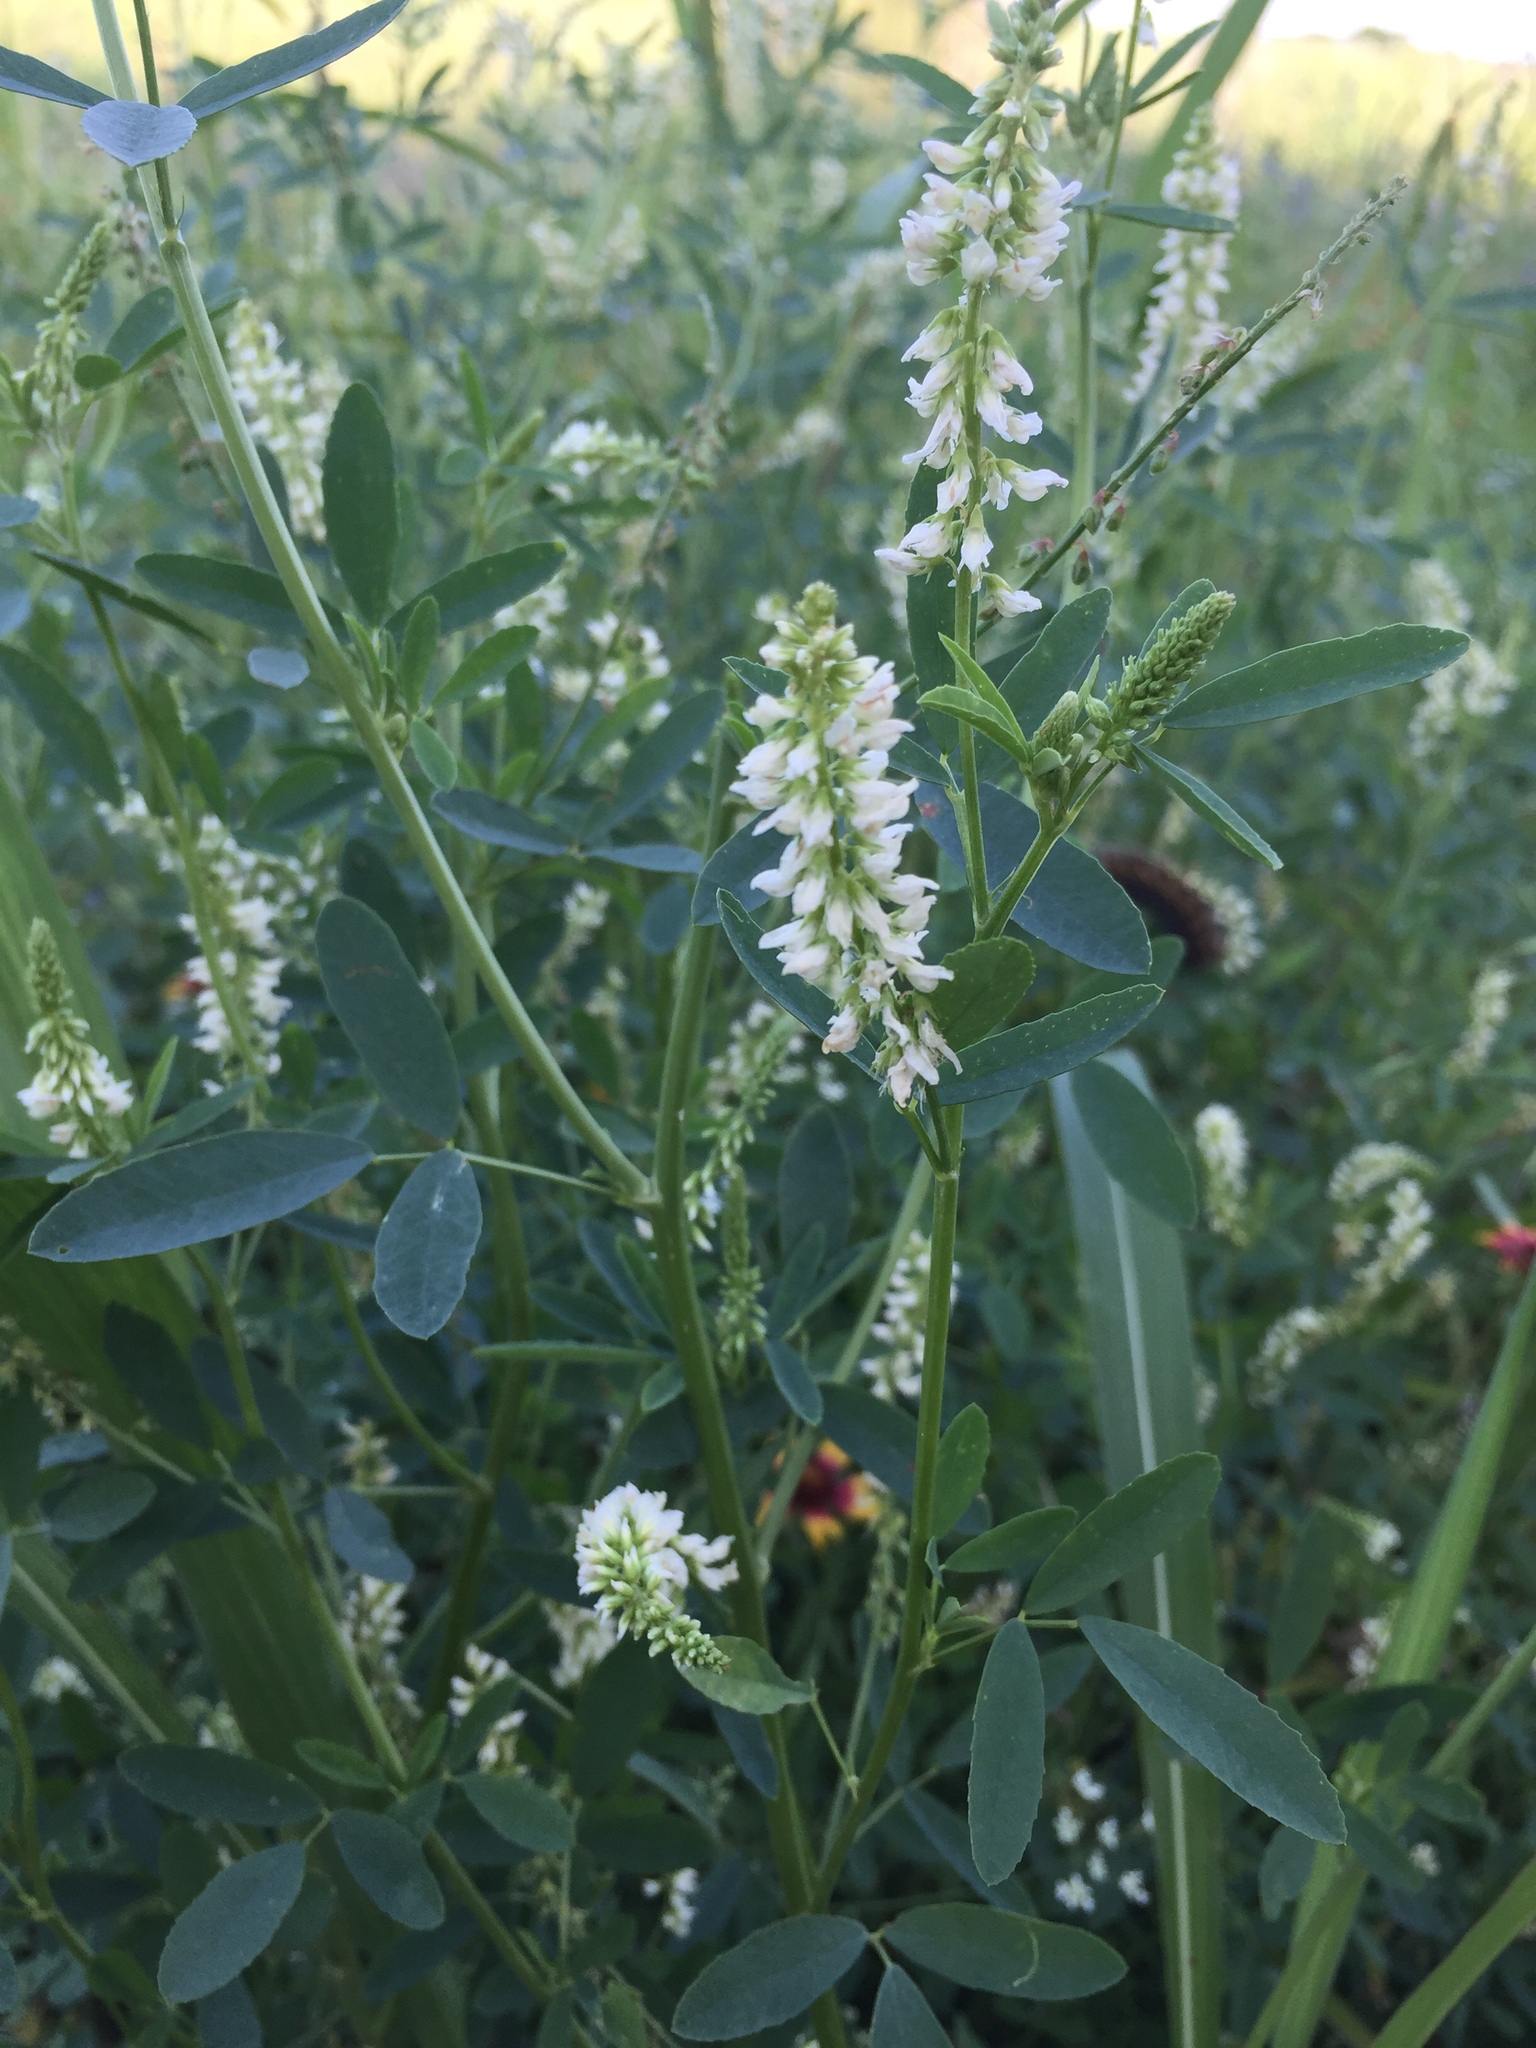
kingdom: Plantae
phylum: Tracheophyta
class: Magnoliopsida
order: Fabales
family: Fabaceae
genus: Melilotus
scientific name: Melilotus albus
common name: White melilot
